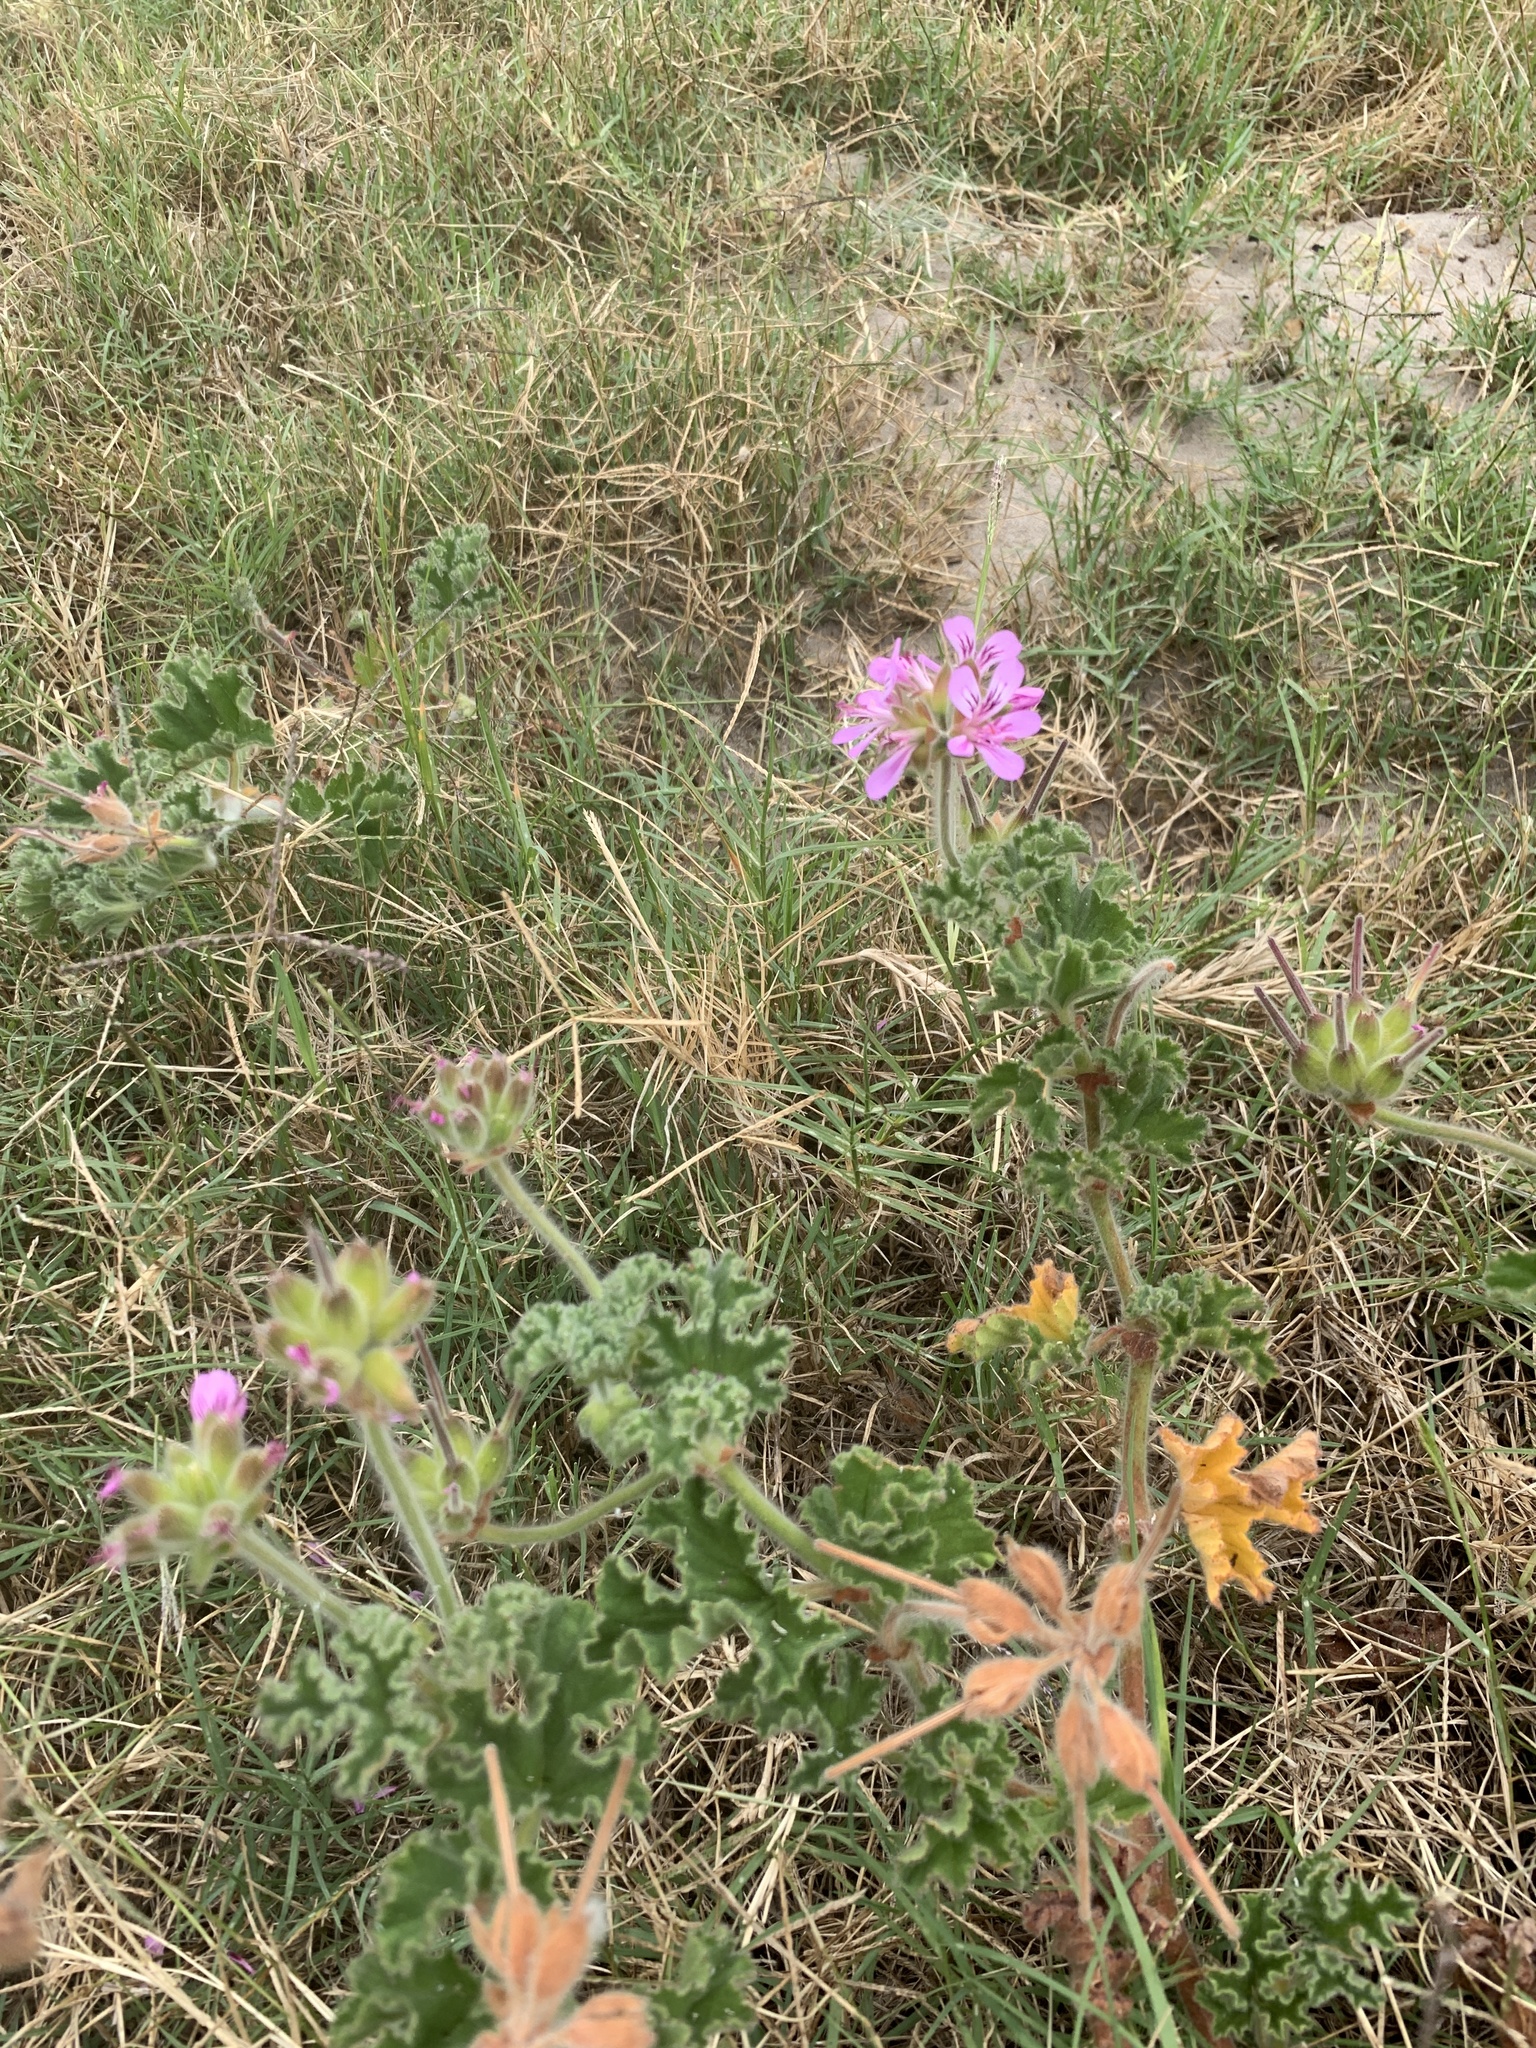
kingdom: Plantae
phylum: Tracheophyta
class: Magnoliopsida
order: Geraniales
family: Geraniaceae
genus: Pelargonium
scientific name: Pelargonium capitatum
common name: Rose scented geranium
